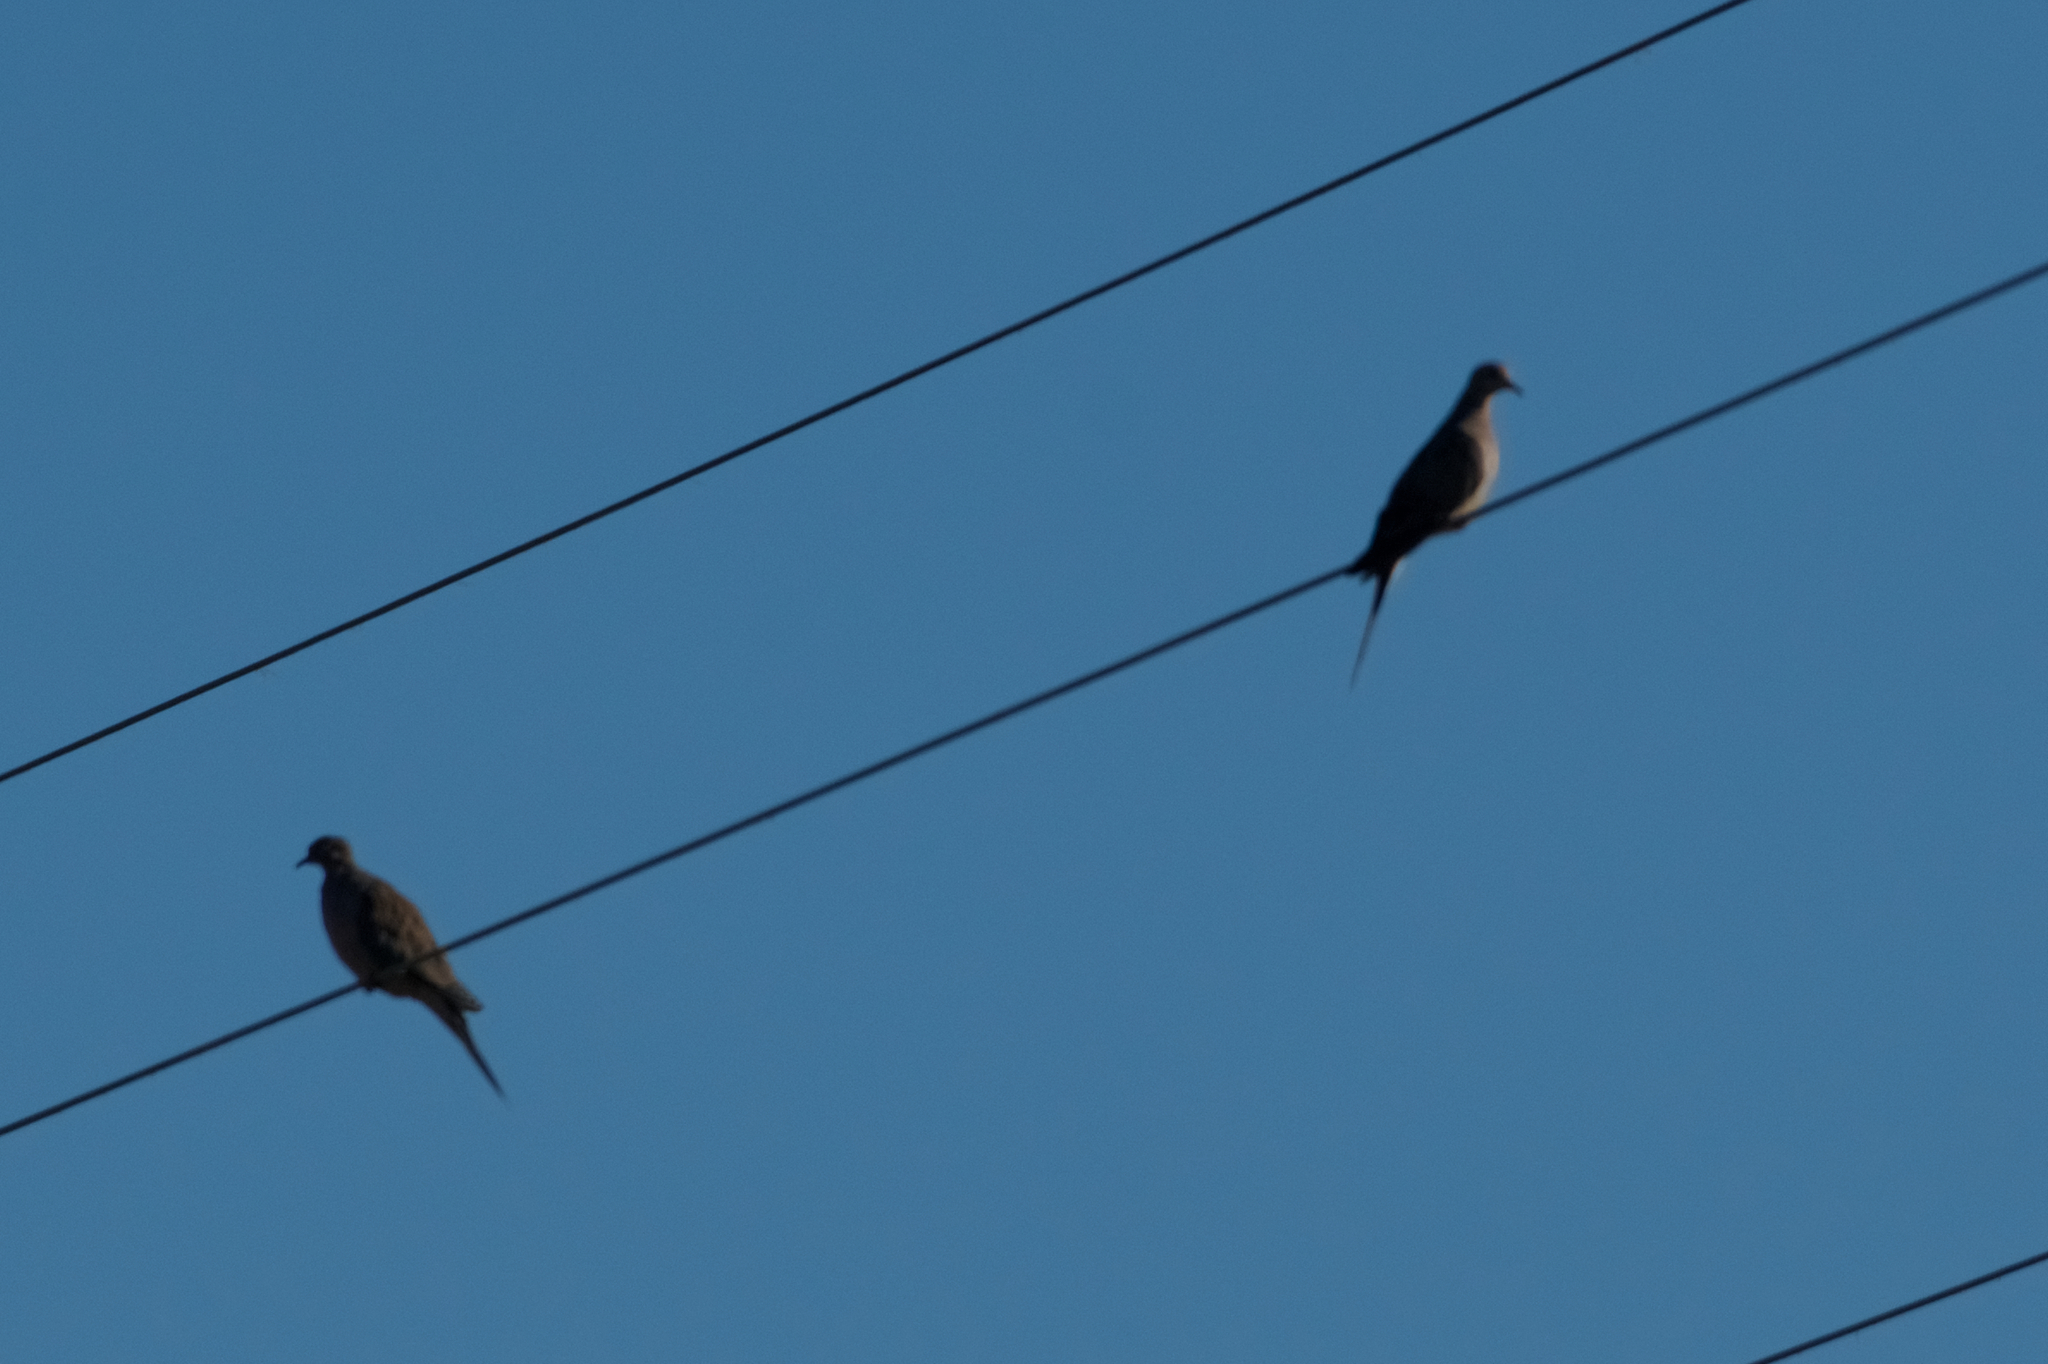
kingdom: Animalia
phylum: Chordata
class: Aves
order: Columbiformes
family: Columbidae
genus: Zenaida
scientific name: Zenaida macroura
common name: Mourning dove
